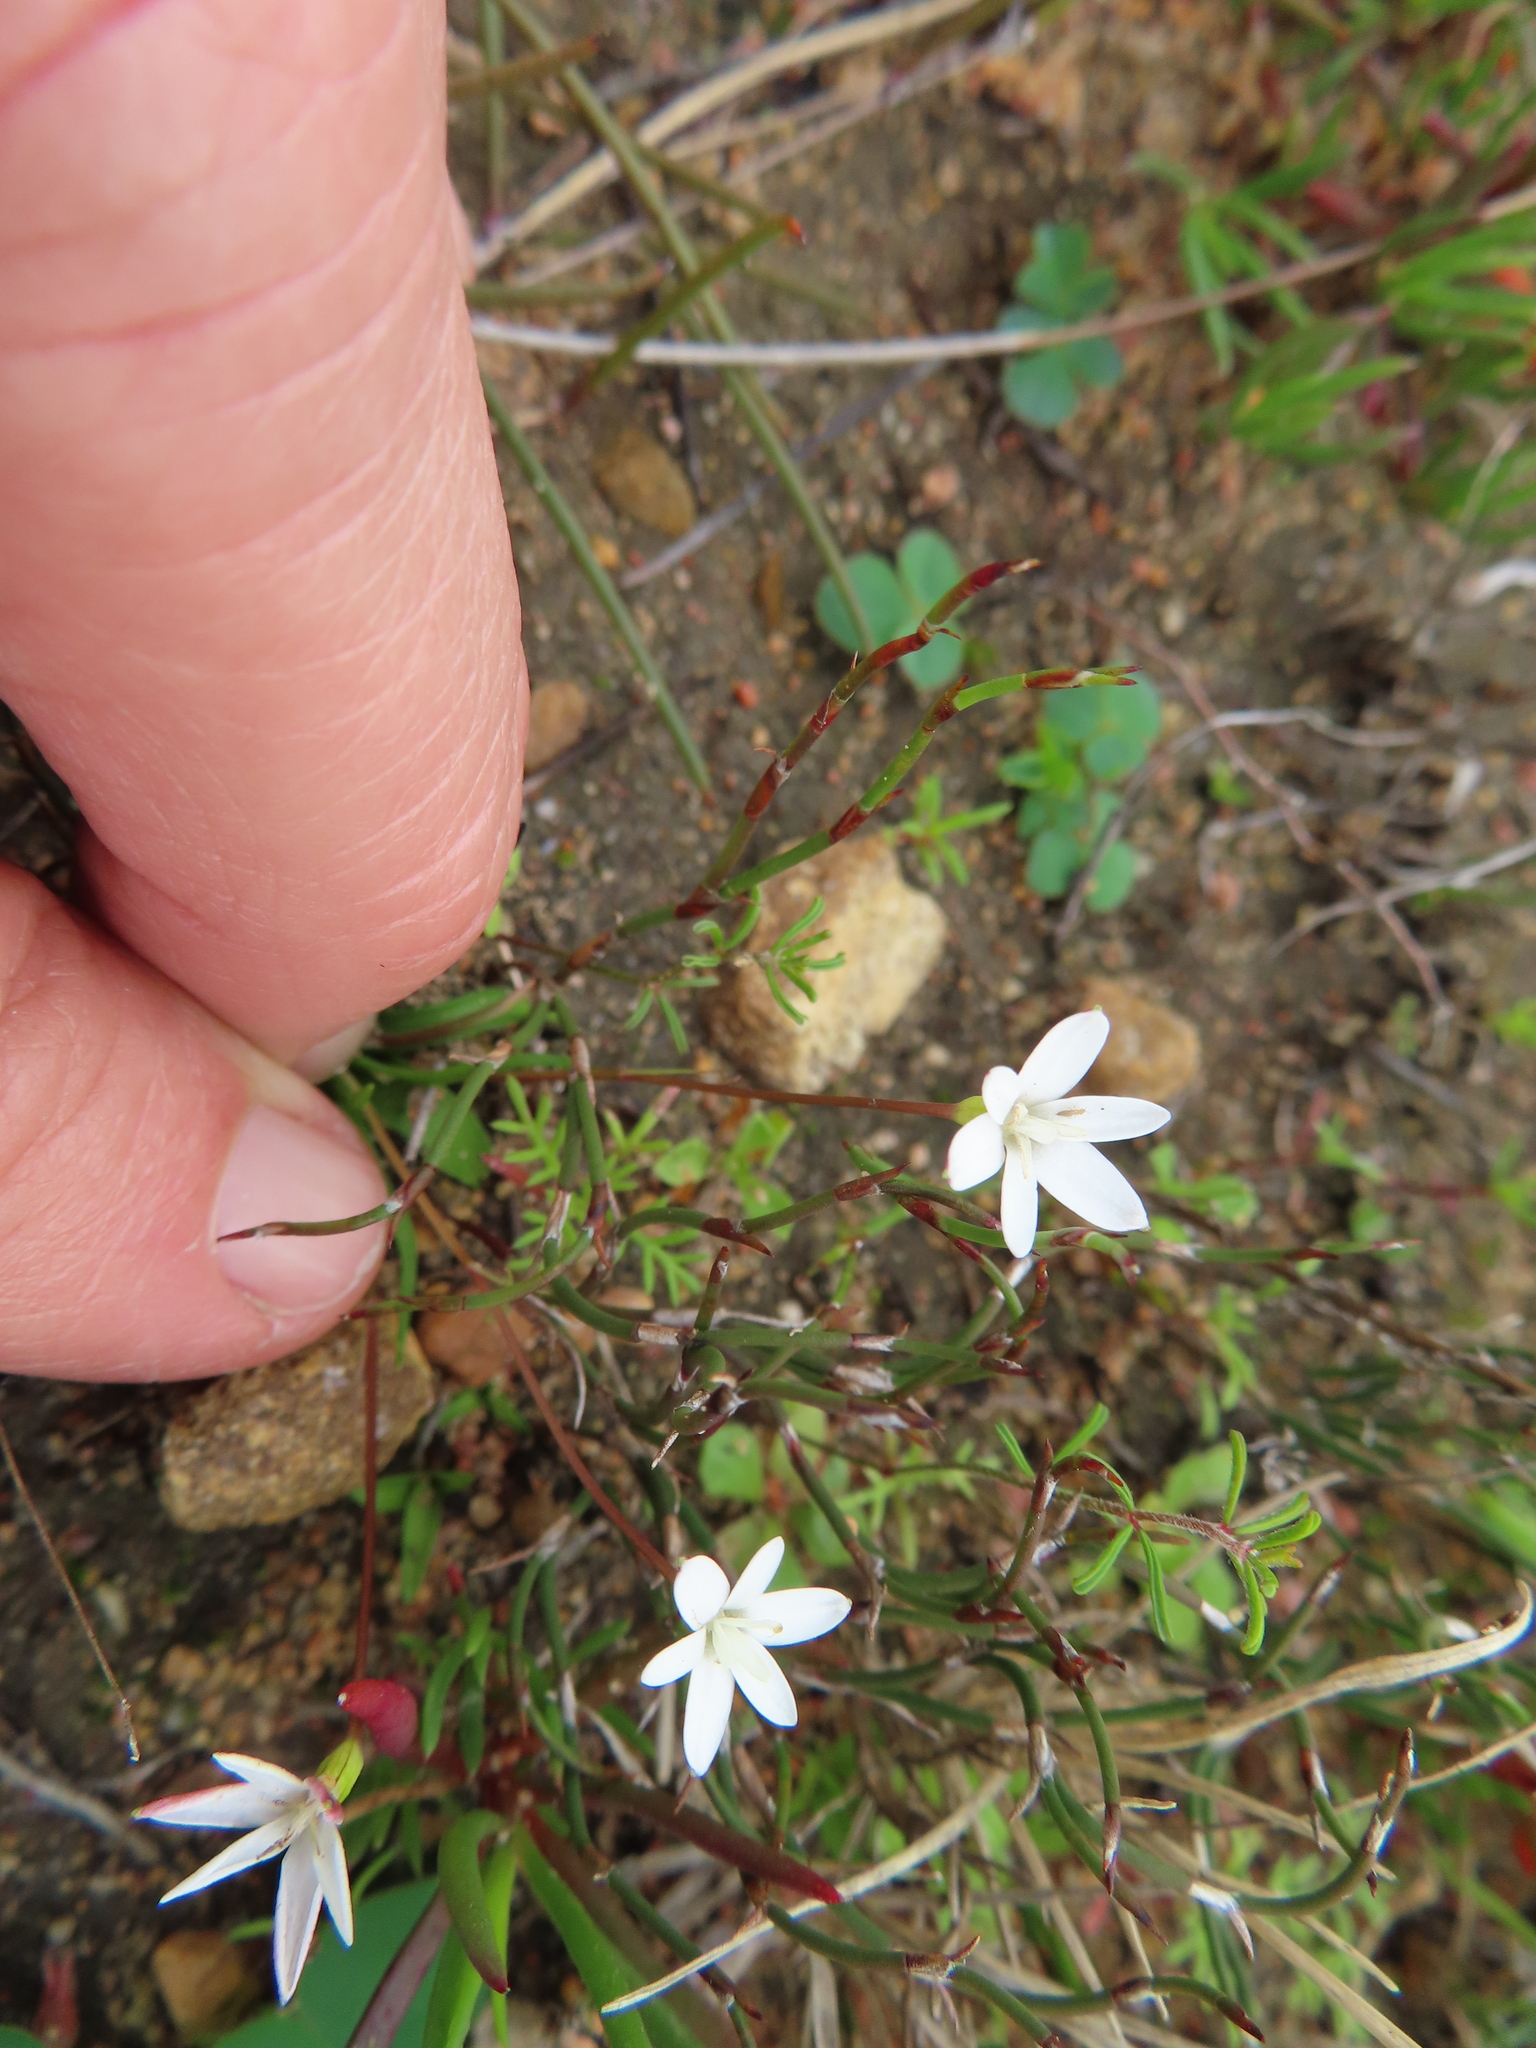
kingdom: Plantae
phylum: Tracheophyta
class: Liliopsida
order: Asparagales
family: Hypoxidaceae
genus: Pauridia
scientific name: Pauridia minuta
